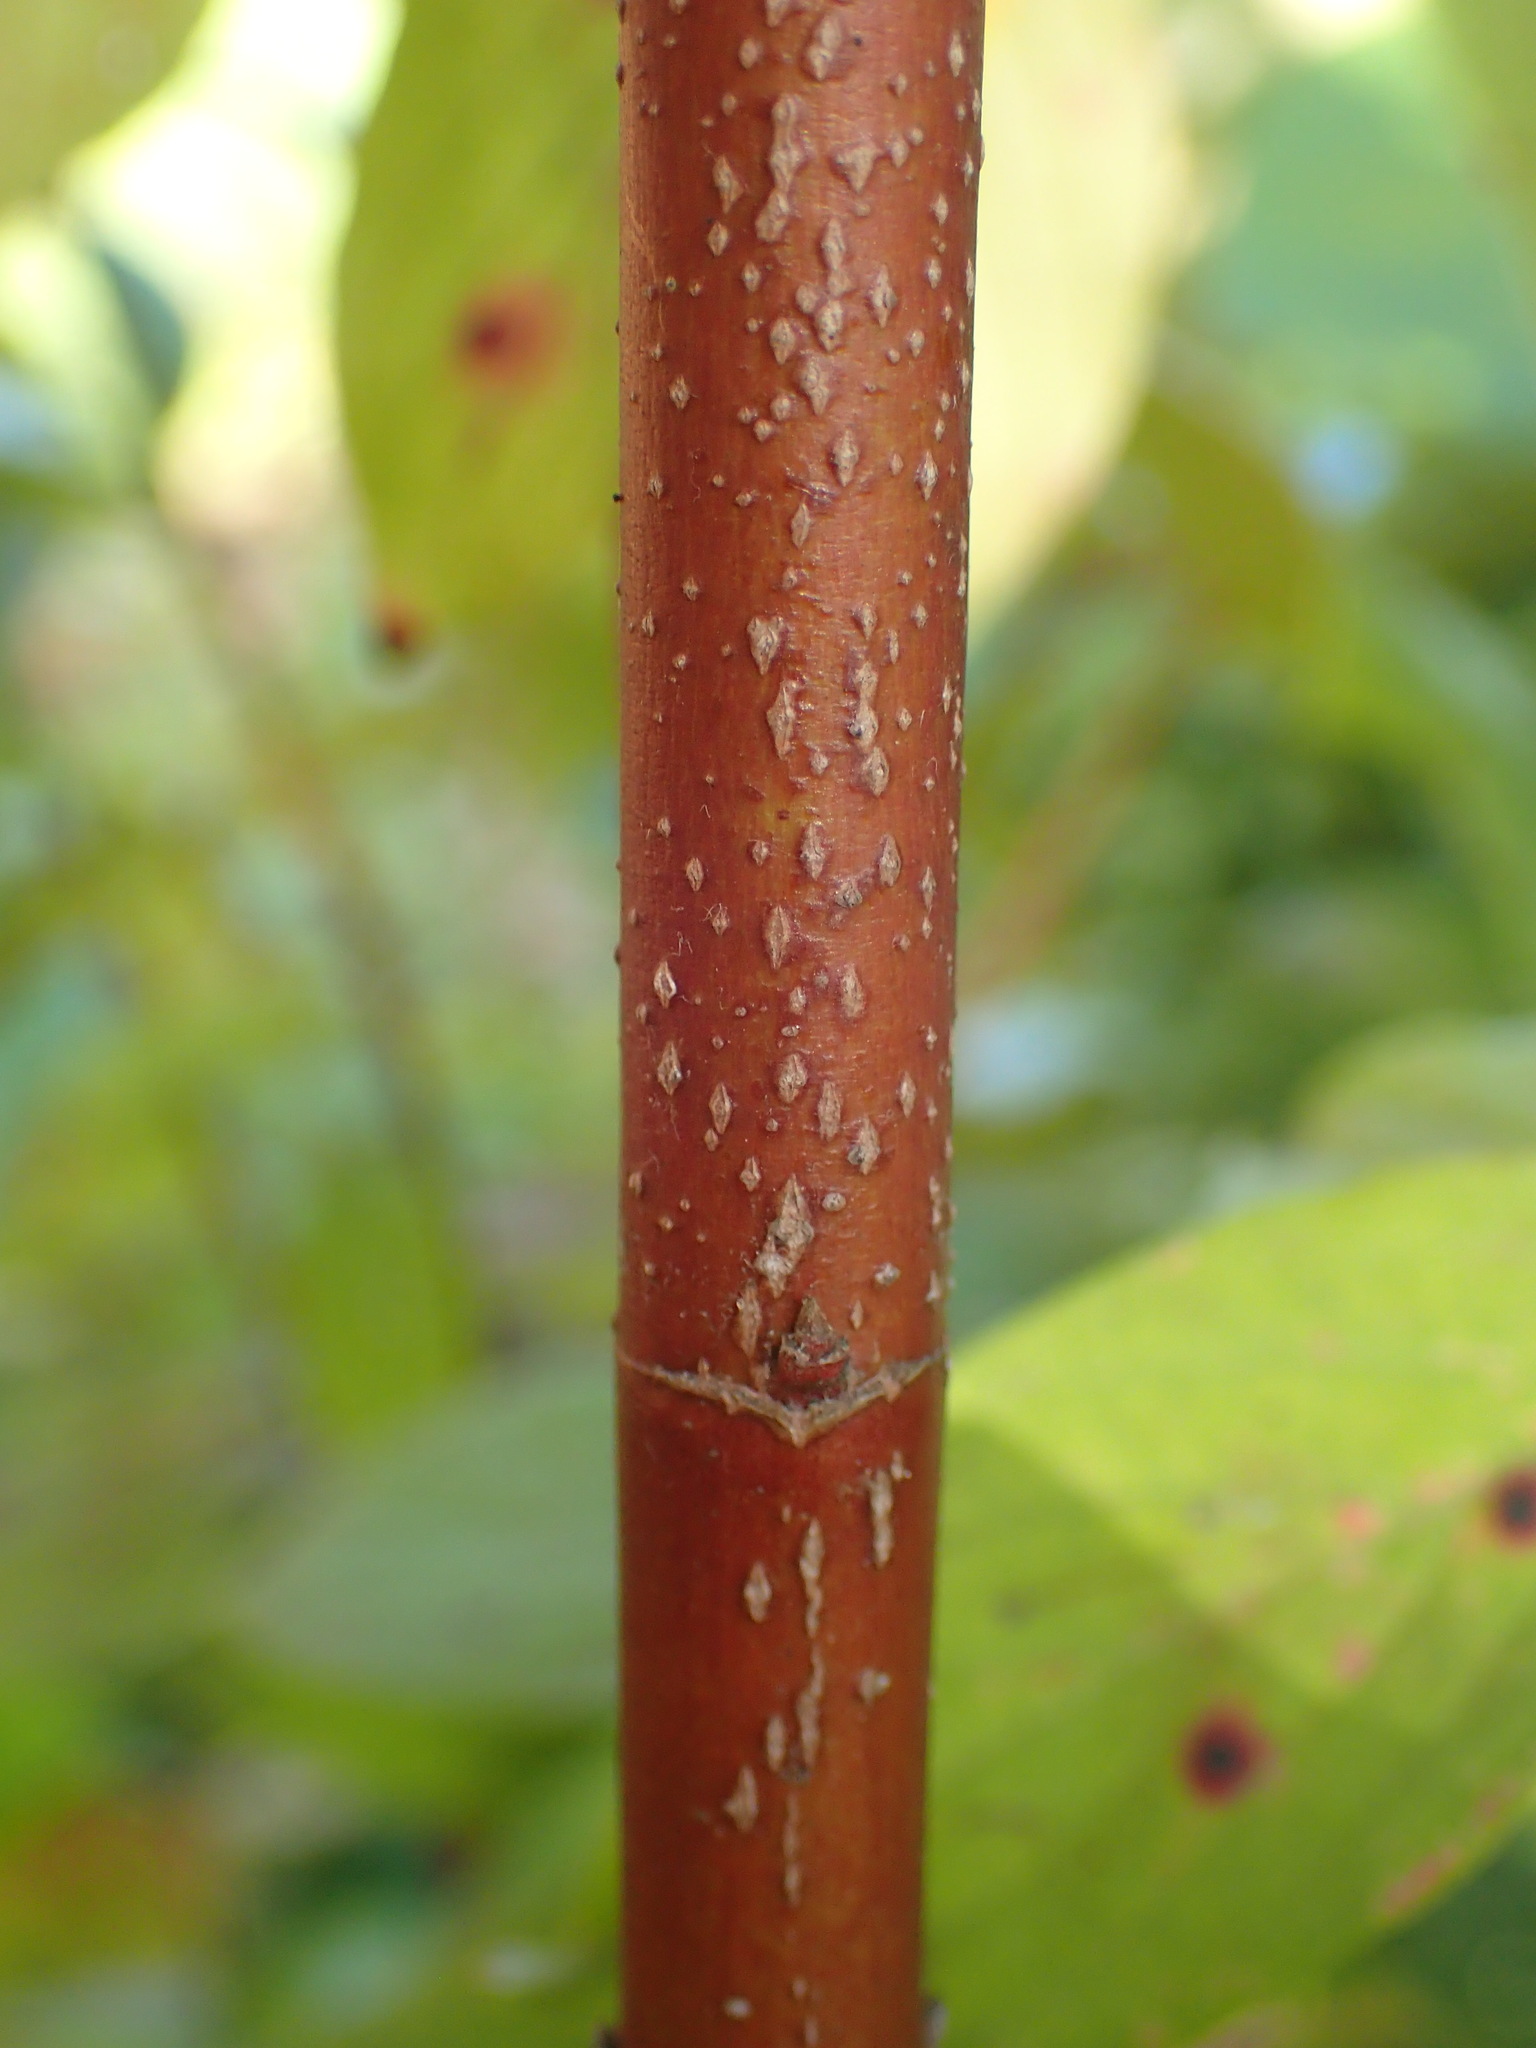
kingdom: Plantae
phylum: Tracheophyta
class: Magnoliopsida
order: Cornales
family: Cornaceae
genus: Cornus
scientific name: Cornus sericea
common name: Red-osier dogwood
